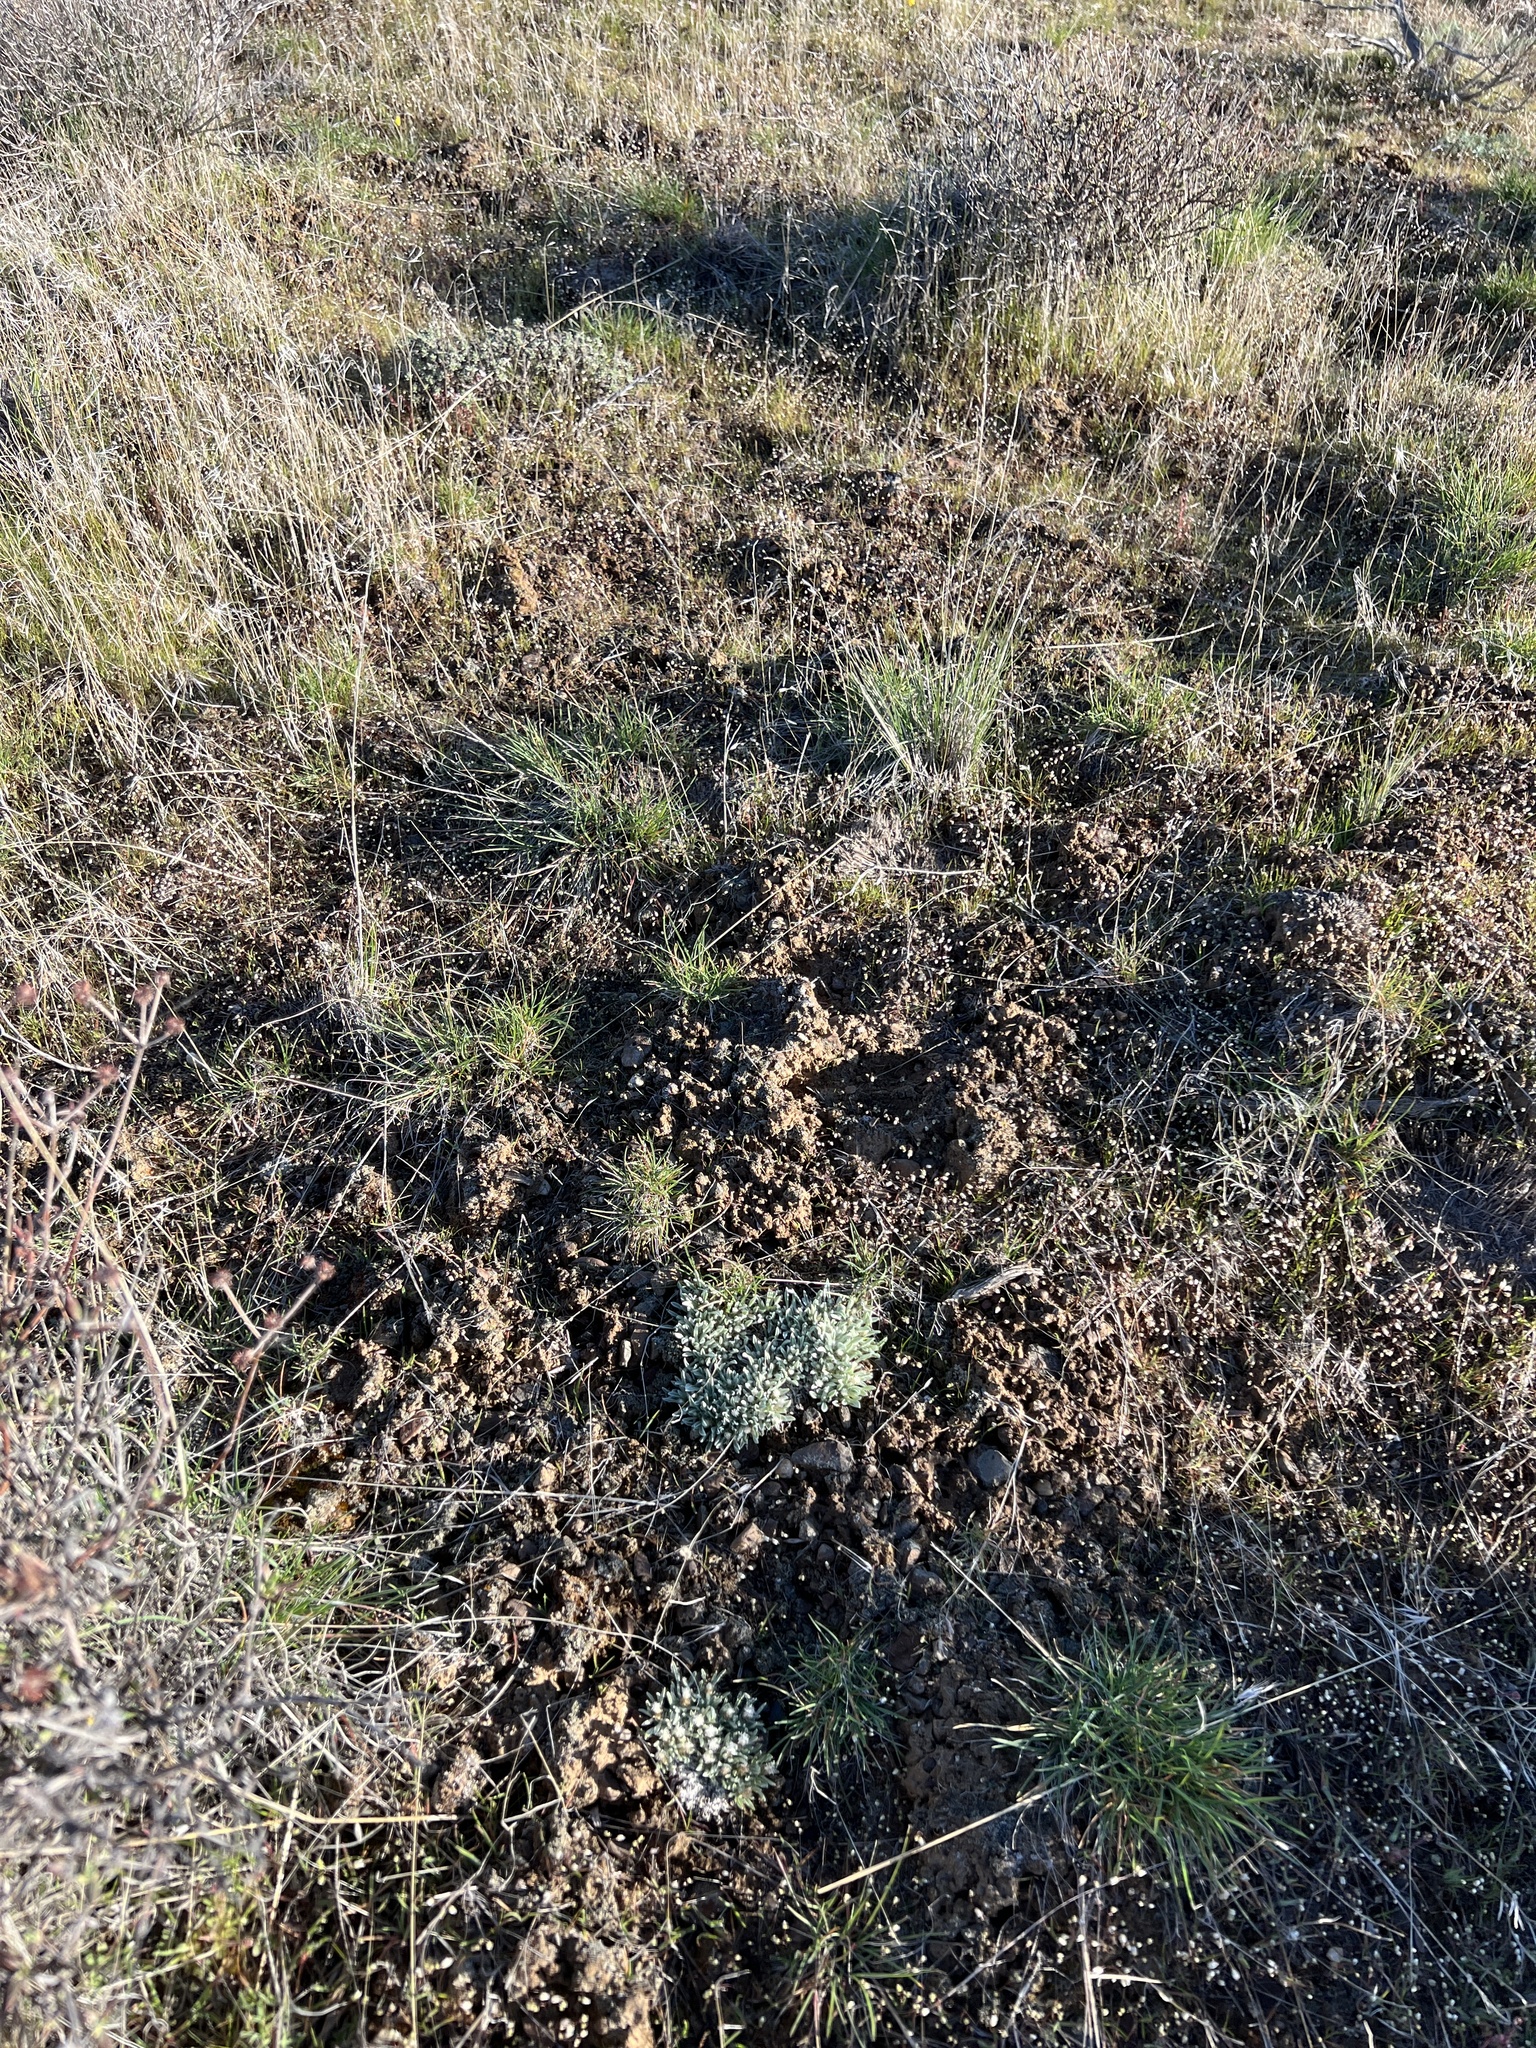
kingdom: Plantae
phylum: Tracheophyta
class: Magnoliopsida
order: Asterales
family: Asteraceae
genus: Antennaria
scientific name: Antennaria dimorpha
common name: Cushion pussytoes
